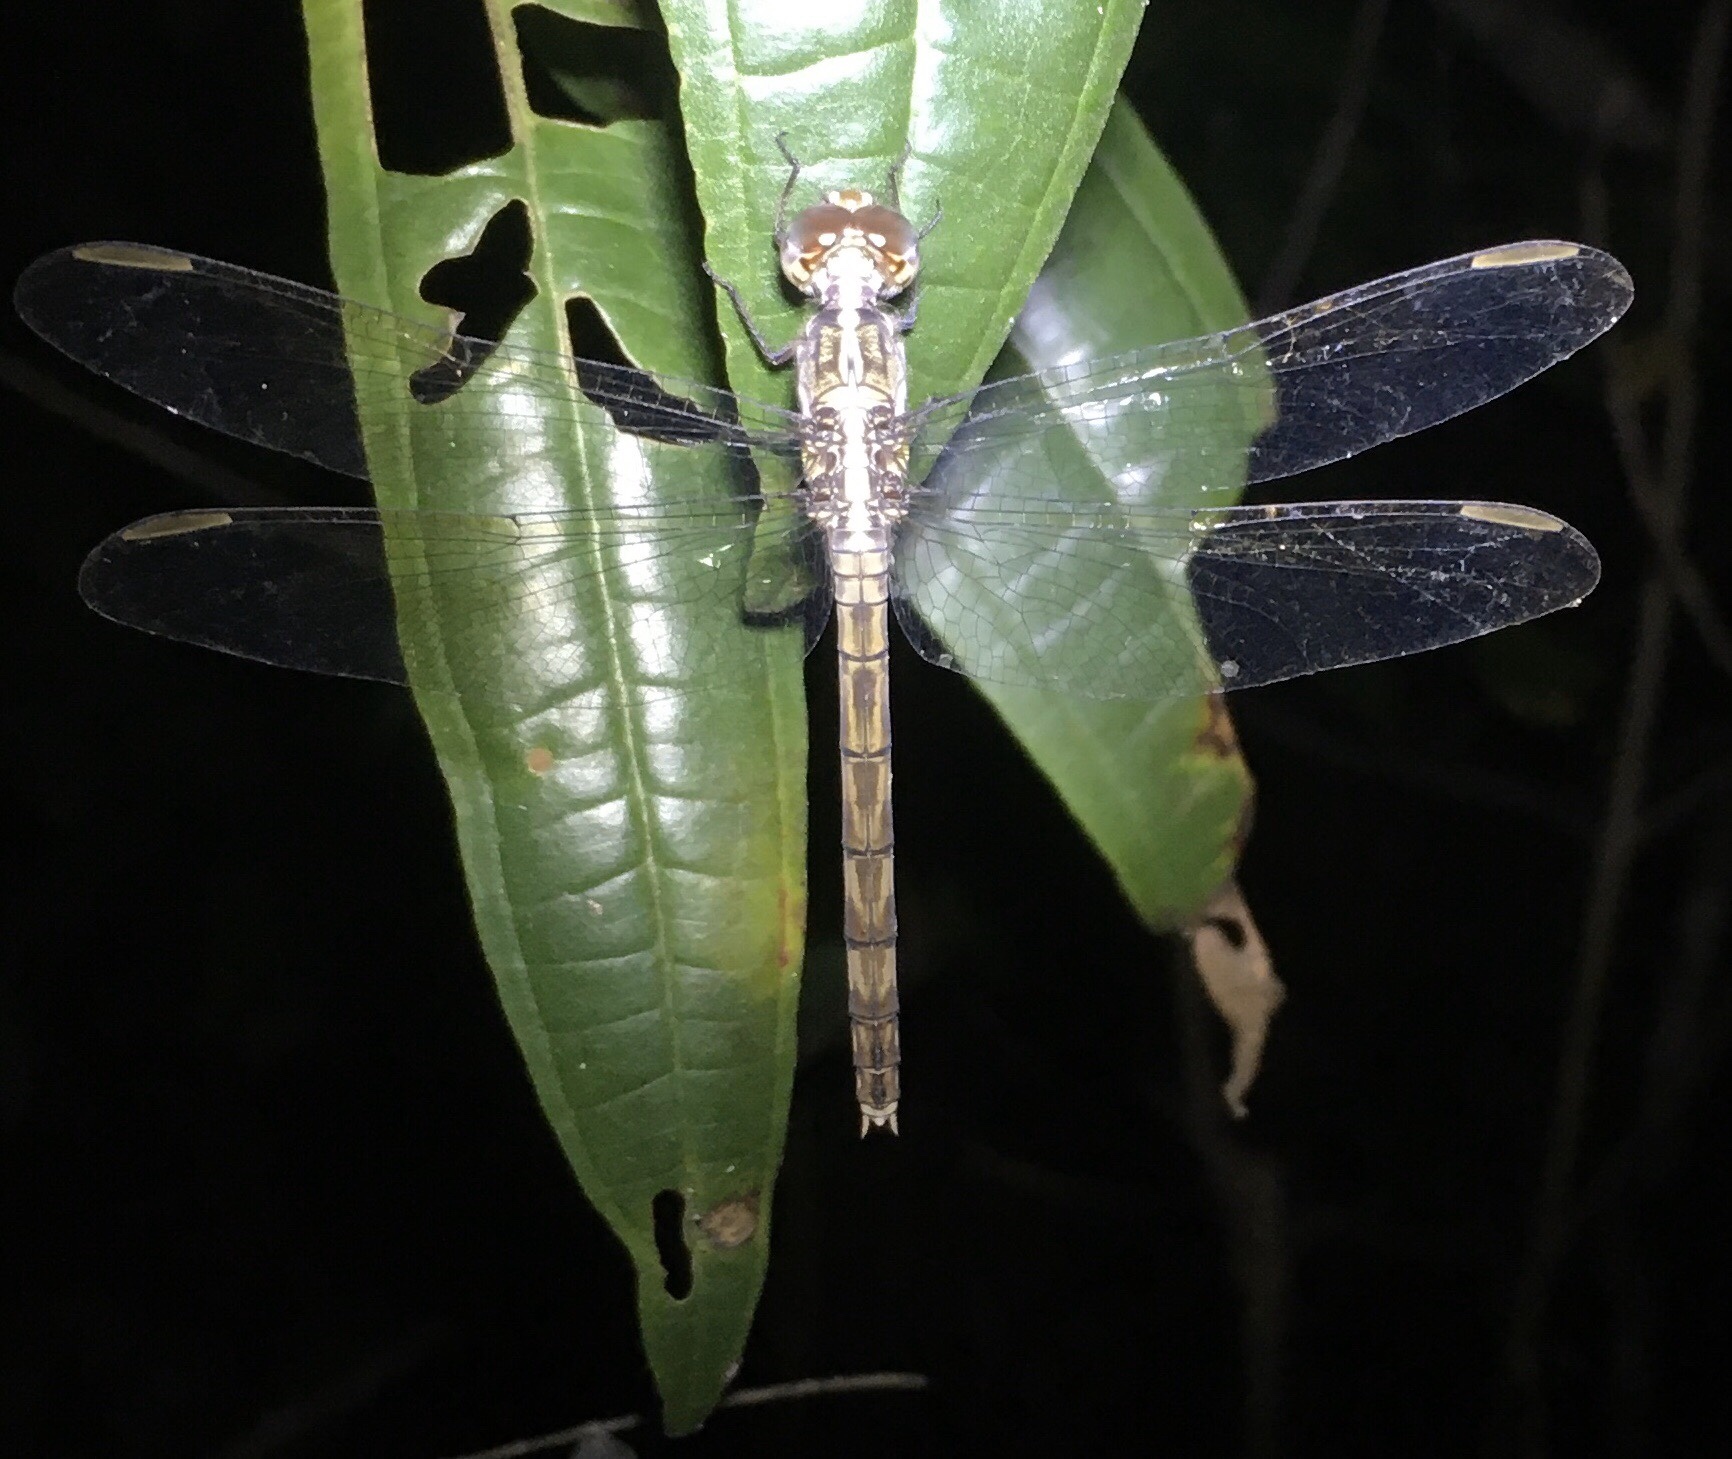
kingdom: Animalia
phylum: Arthropoda
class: Insecta
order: Odonata
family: Libellulidae
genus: Erythrodiplax
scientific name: Erythrodiplax umbrata
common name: Band-winged dragonlet
